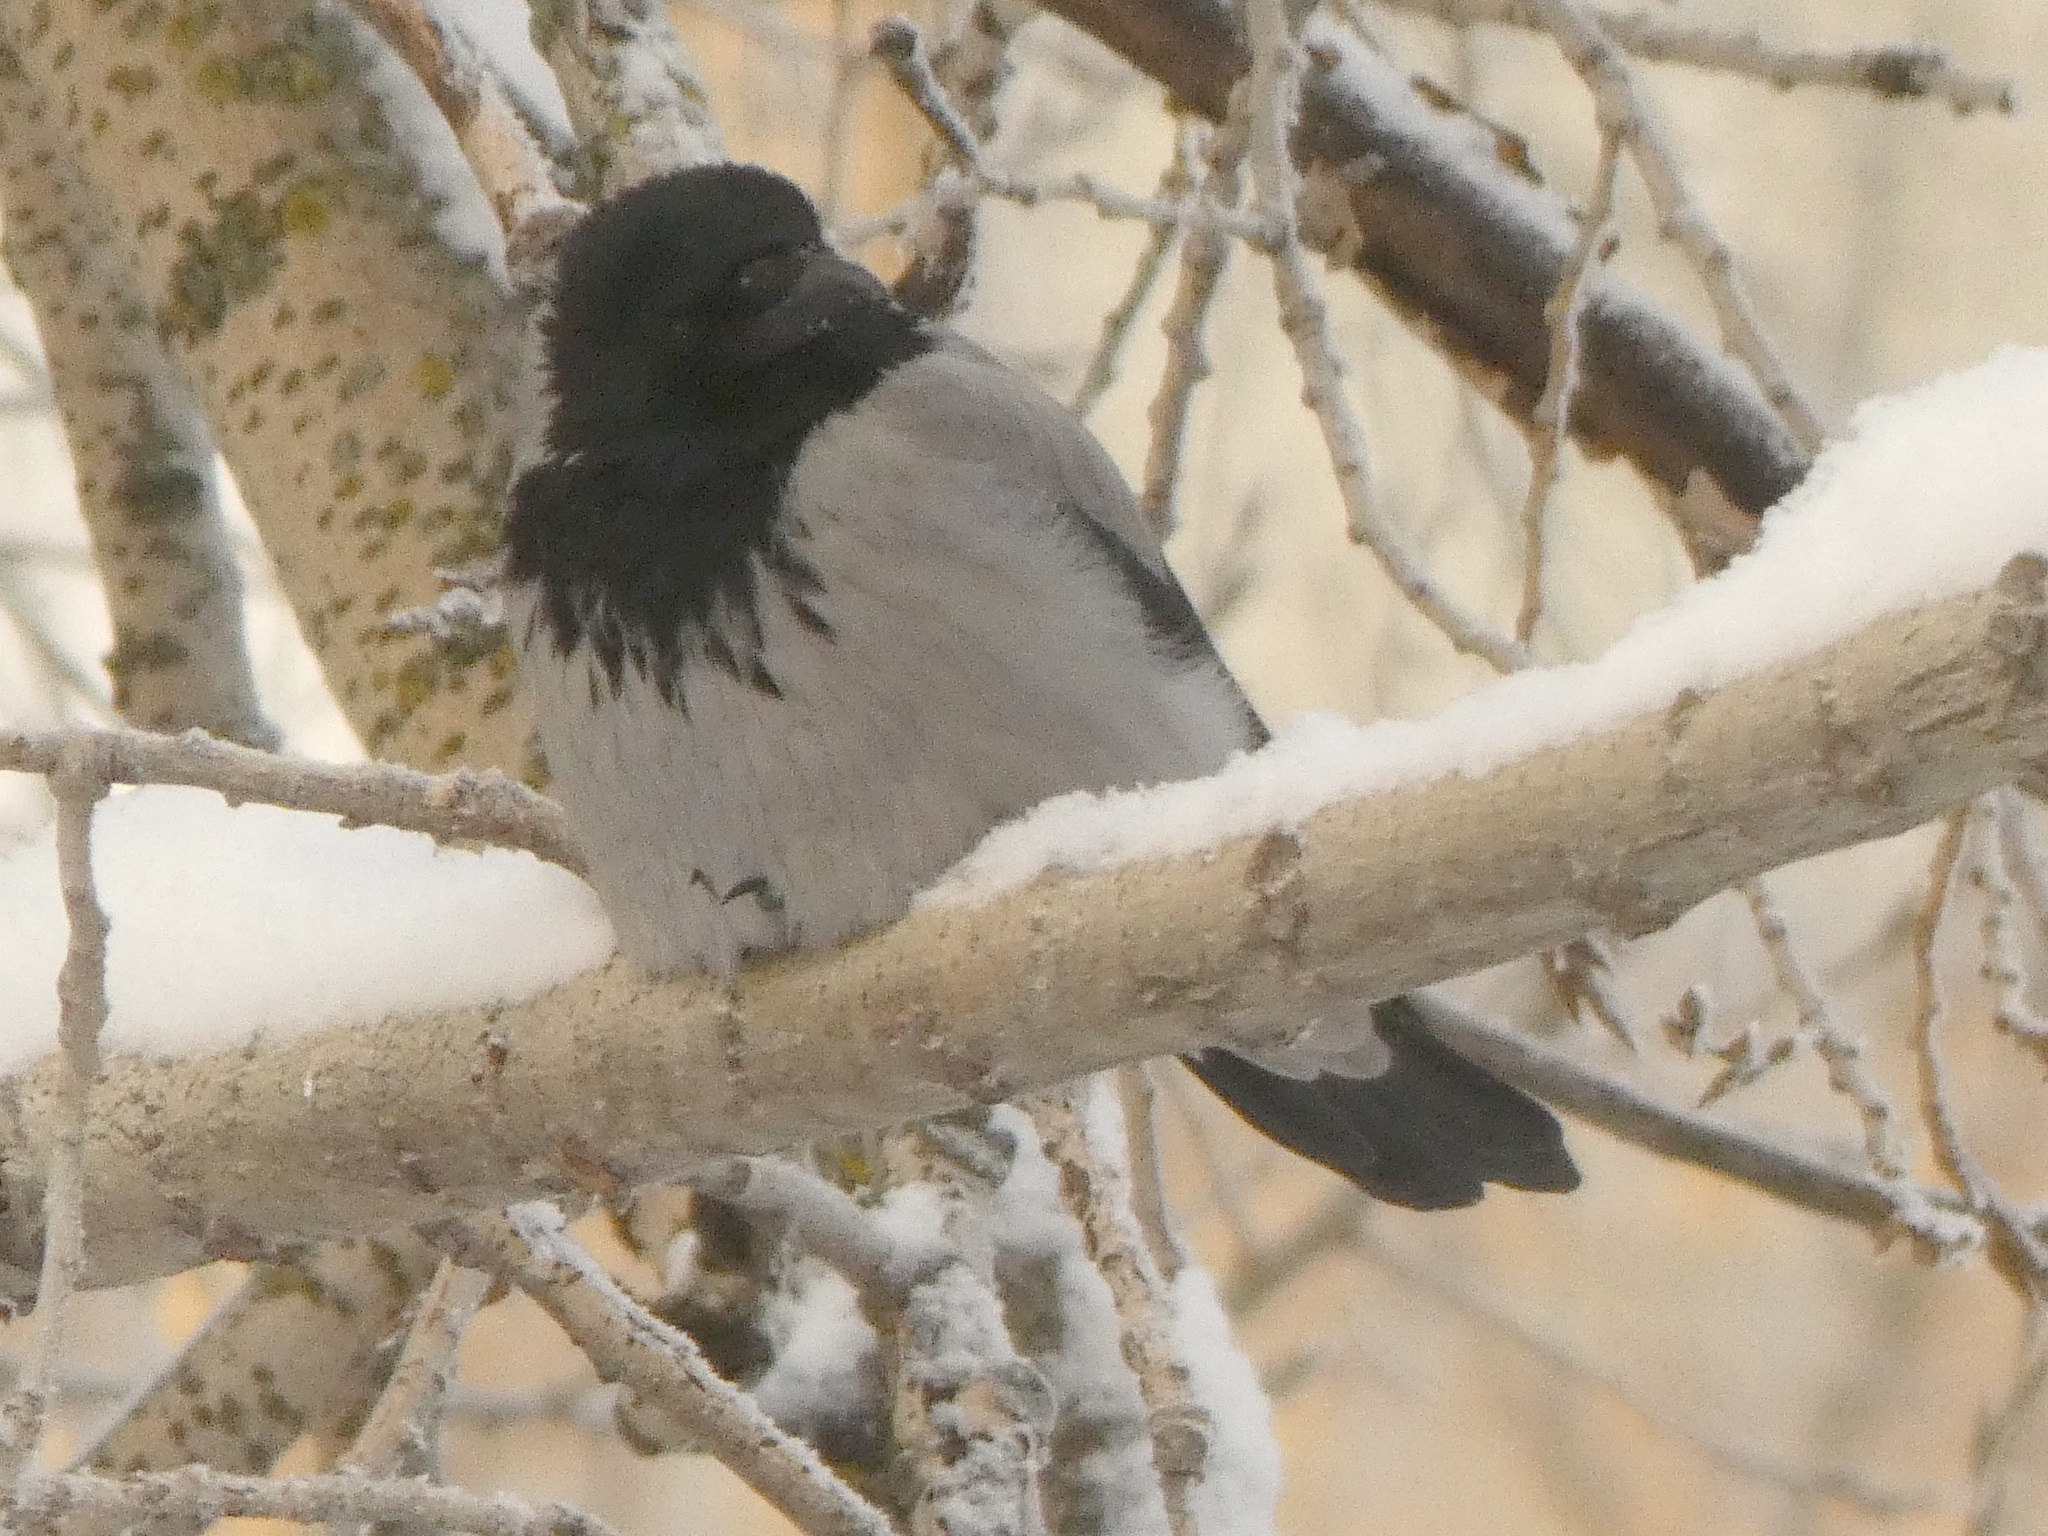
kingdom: Animalia
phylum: Chordata
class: Aves
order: Passeriformes
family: Corvidae
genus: Corvus
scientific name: Corvus cornix
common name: Hooded crow
